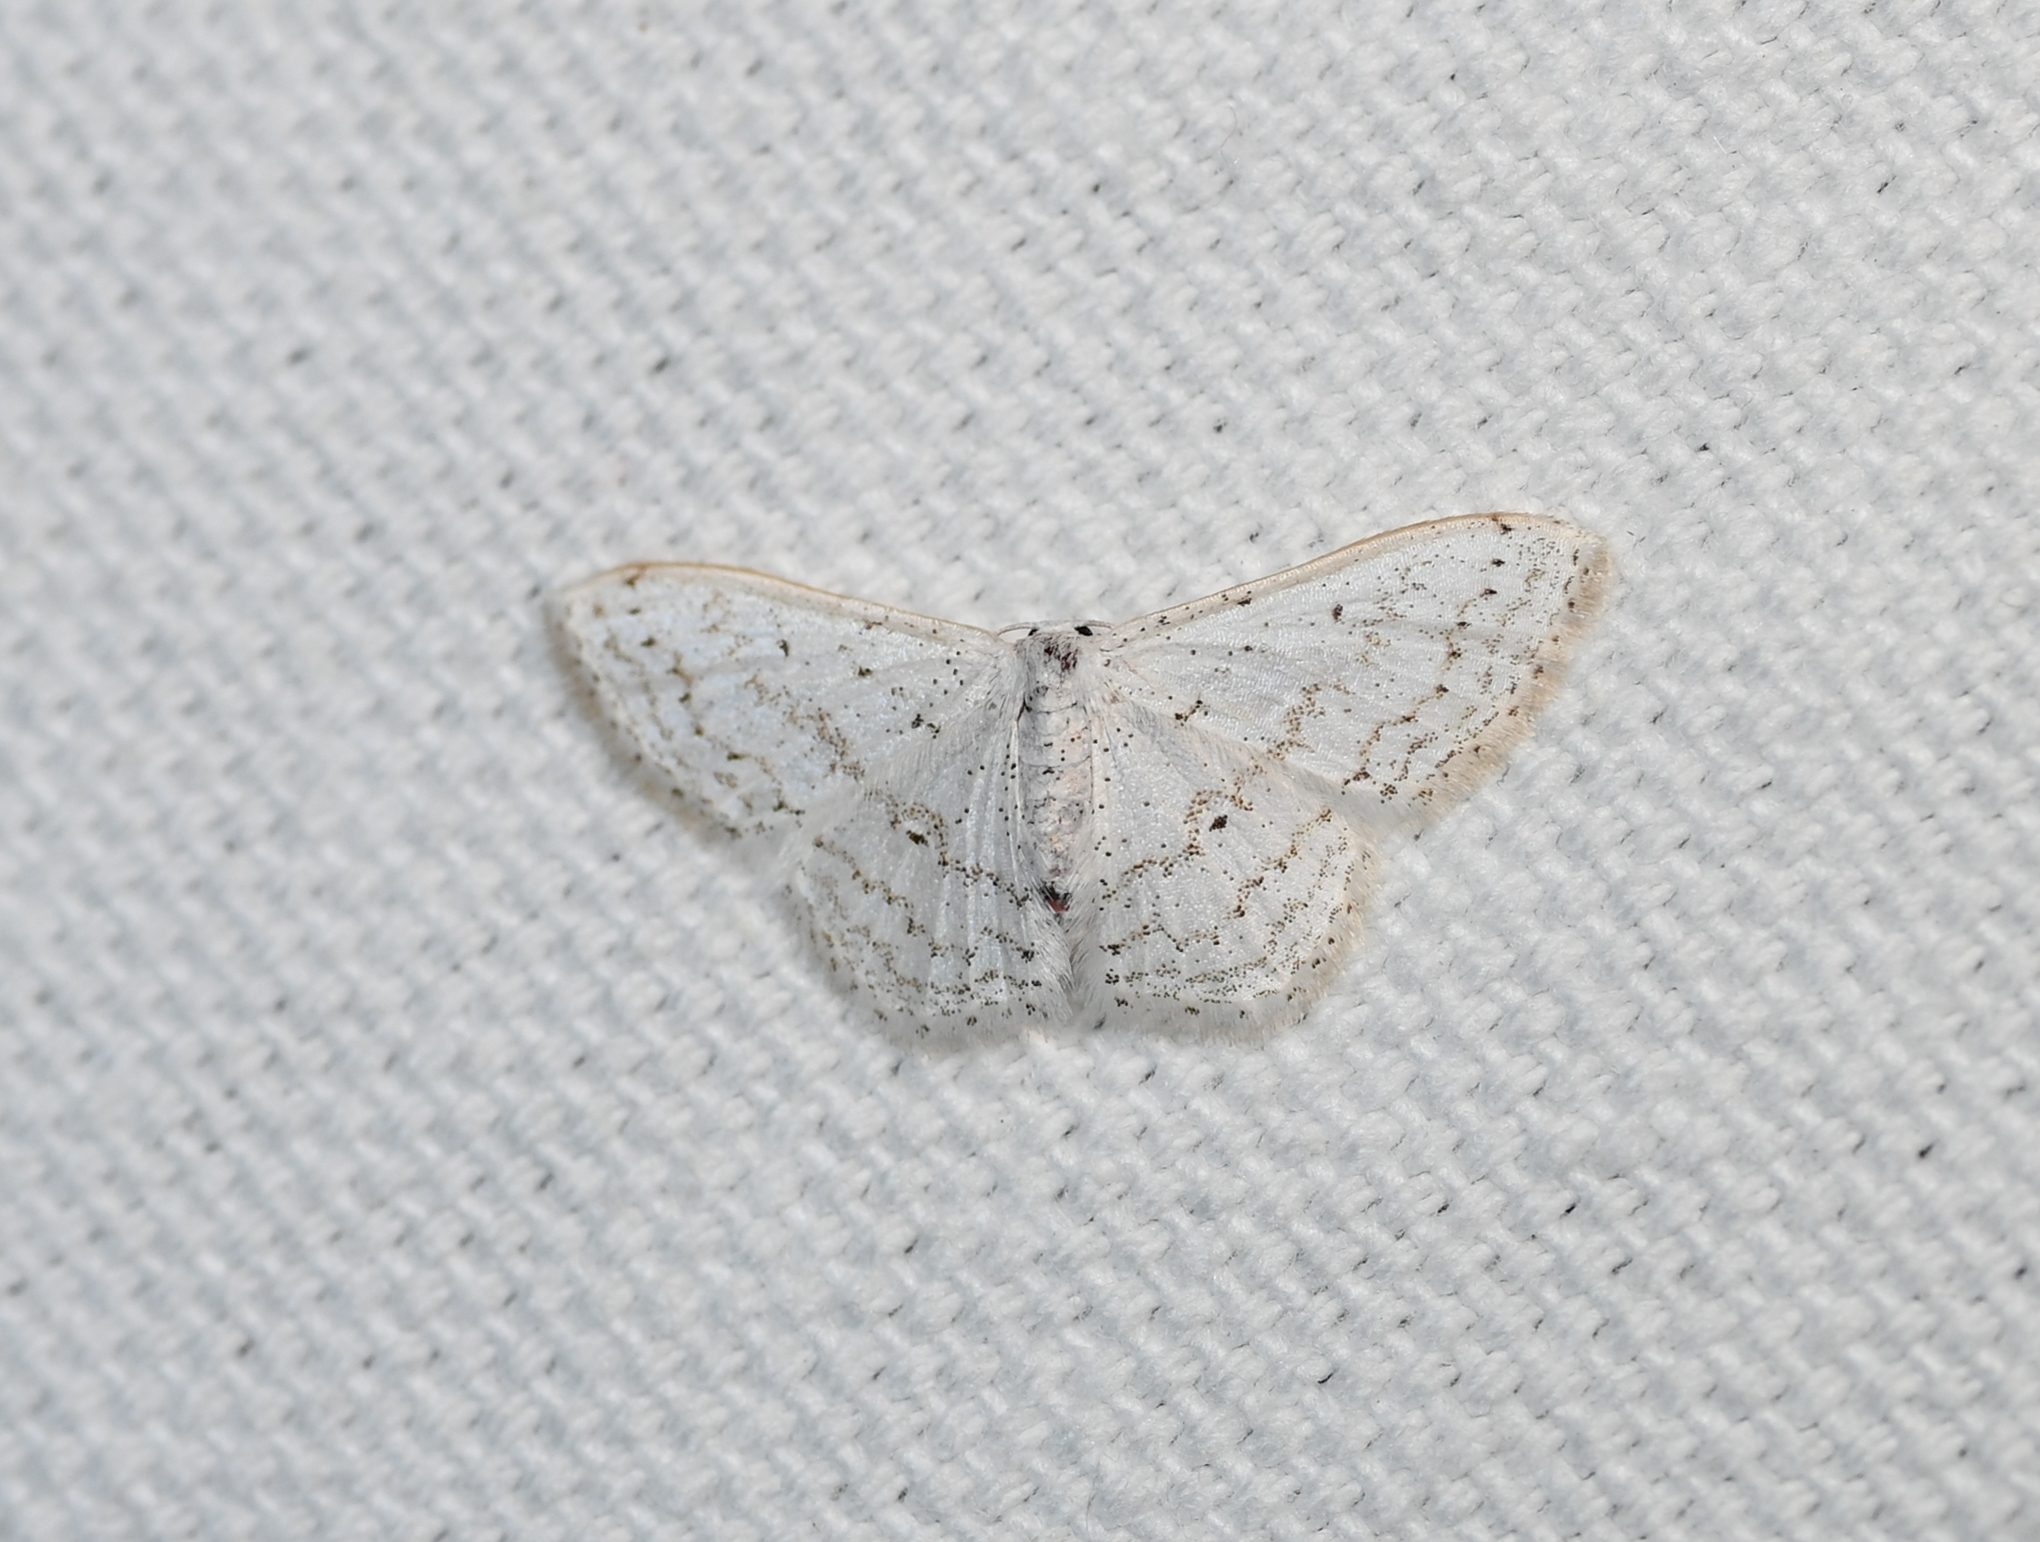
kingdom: Animalia
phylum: Arthropoda
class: Insecta
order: Lepidoptera
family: Geometridae
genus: Idaea
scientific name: Idaea tacturata
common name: Dot-lined wave
